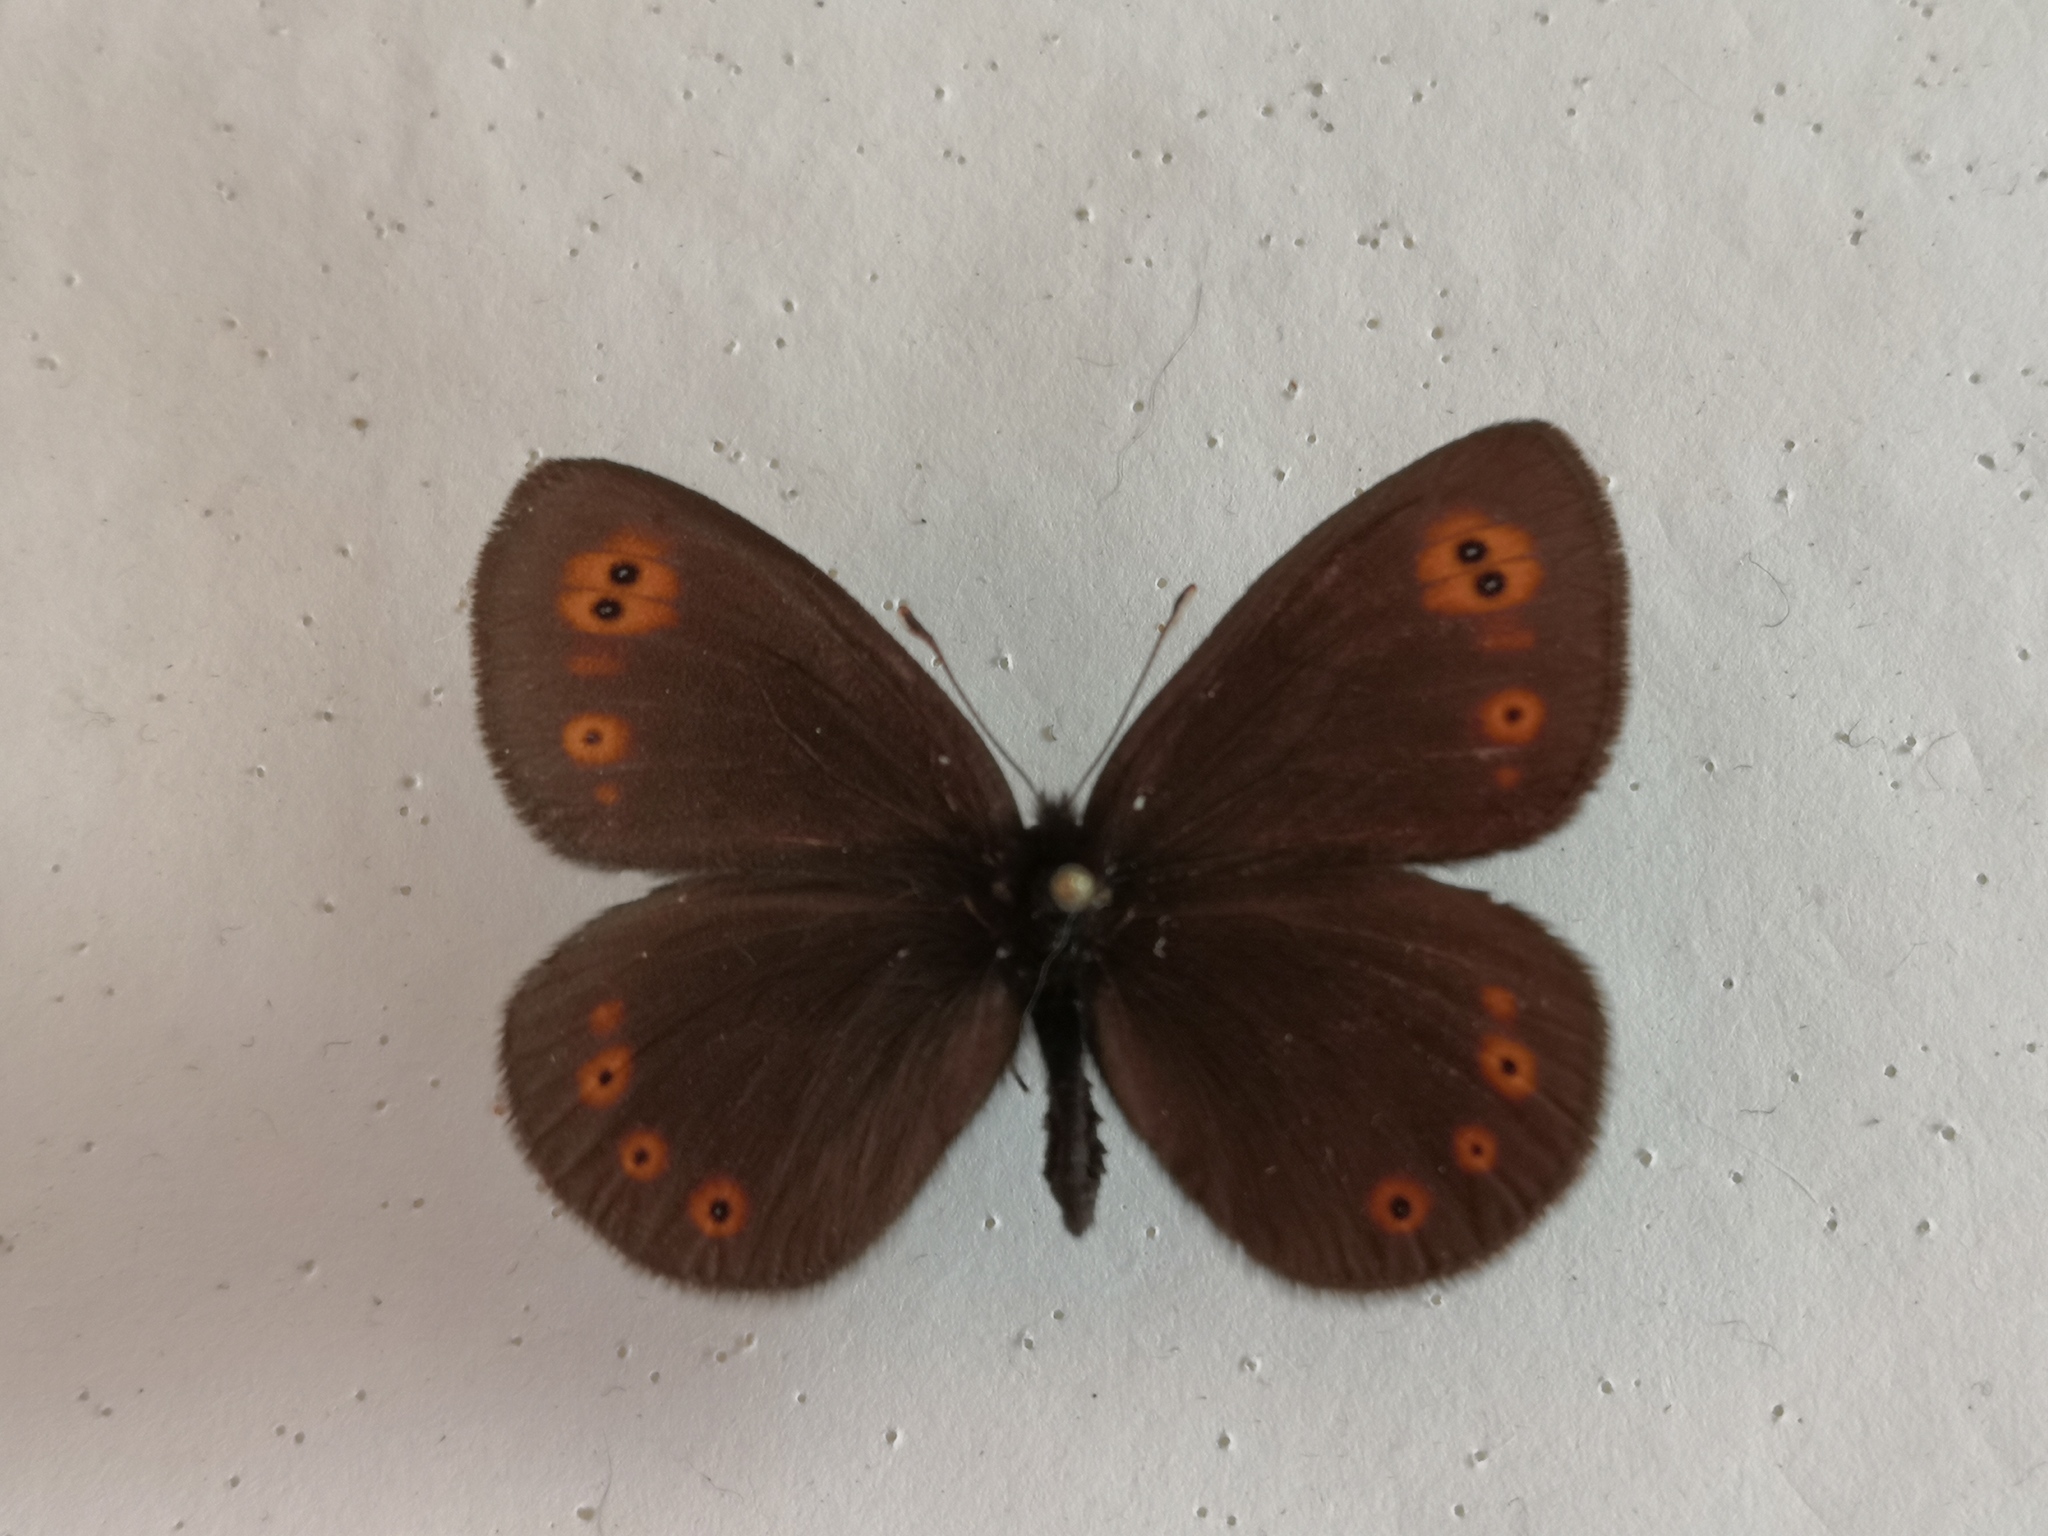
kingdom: Animalia
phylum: Arthropoda
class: Insecta
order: Lepidoptera
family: Nymphalidae
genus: Erebia
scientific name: Erebia medusa
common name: Woodland ringlet
